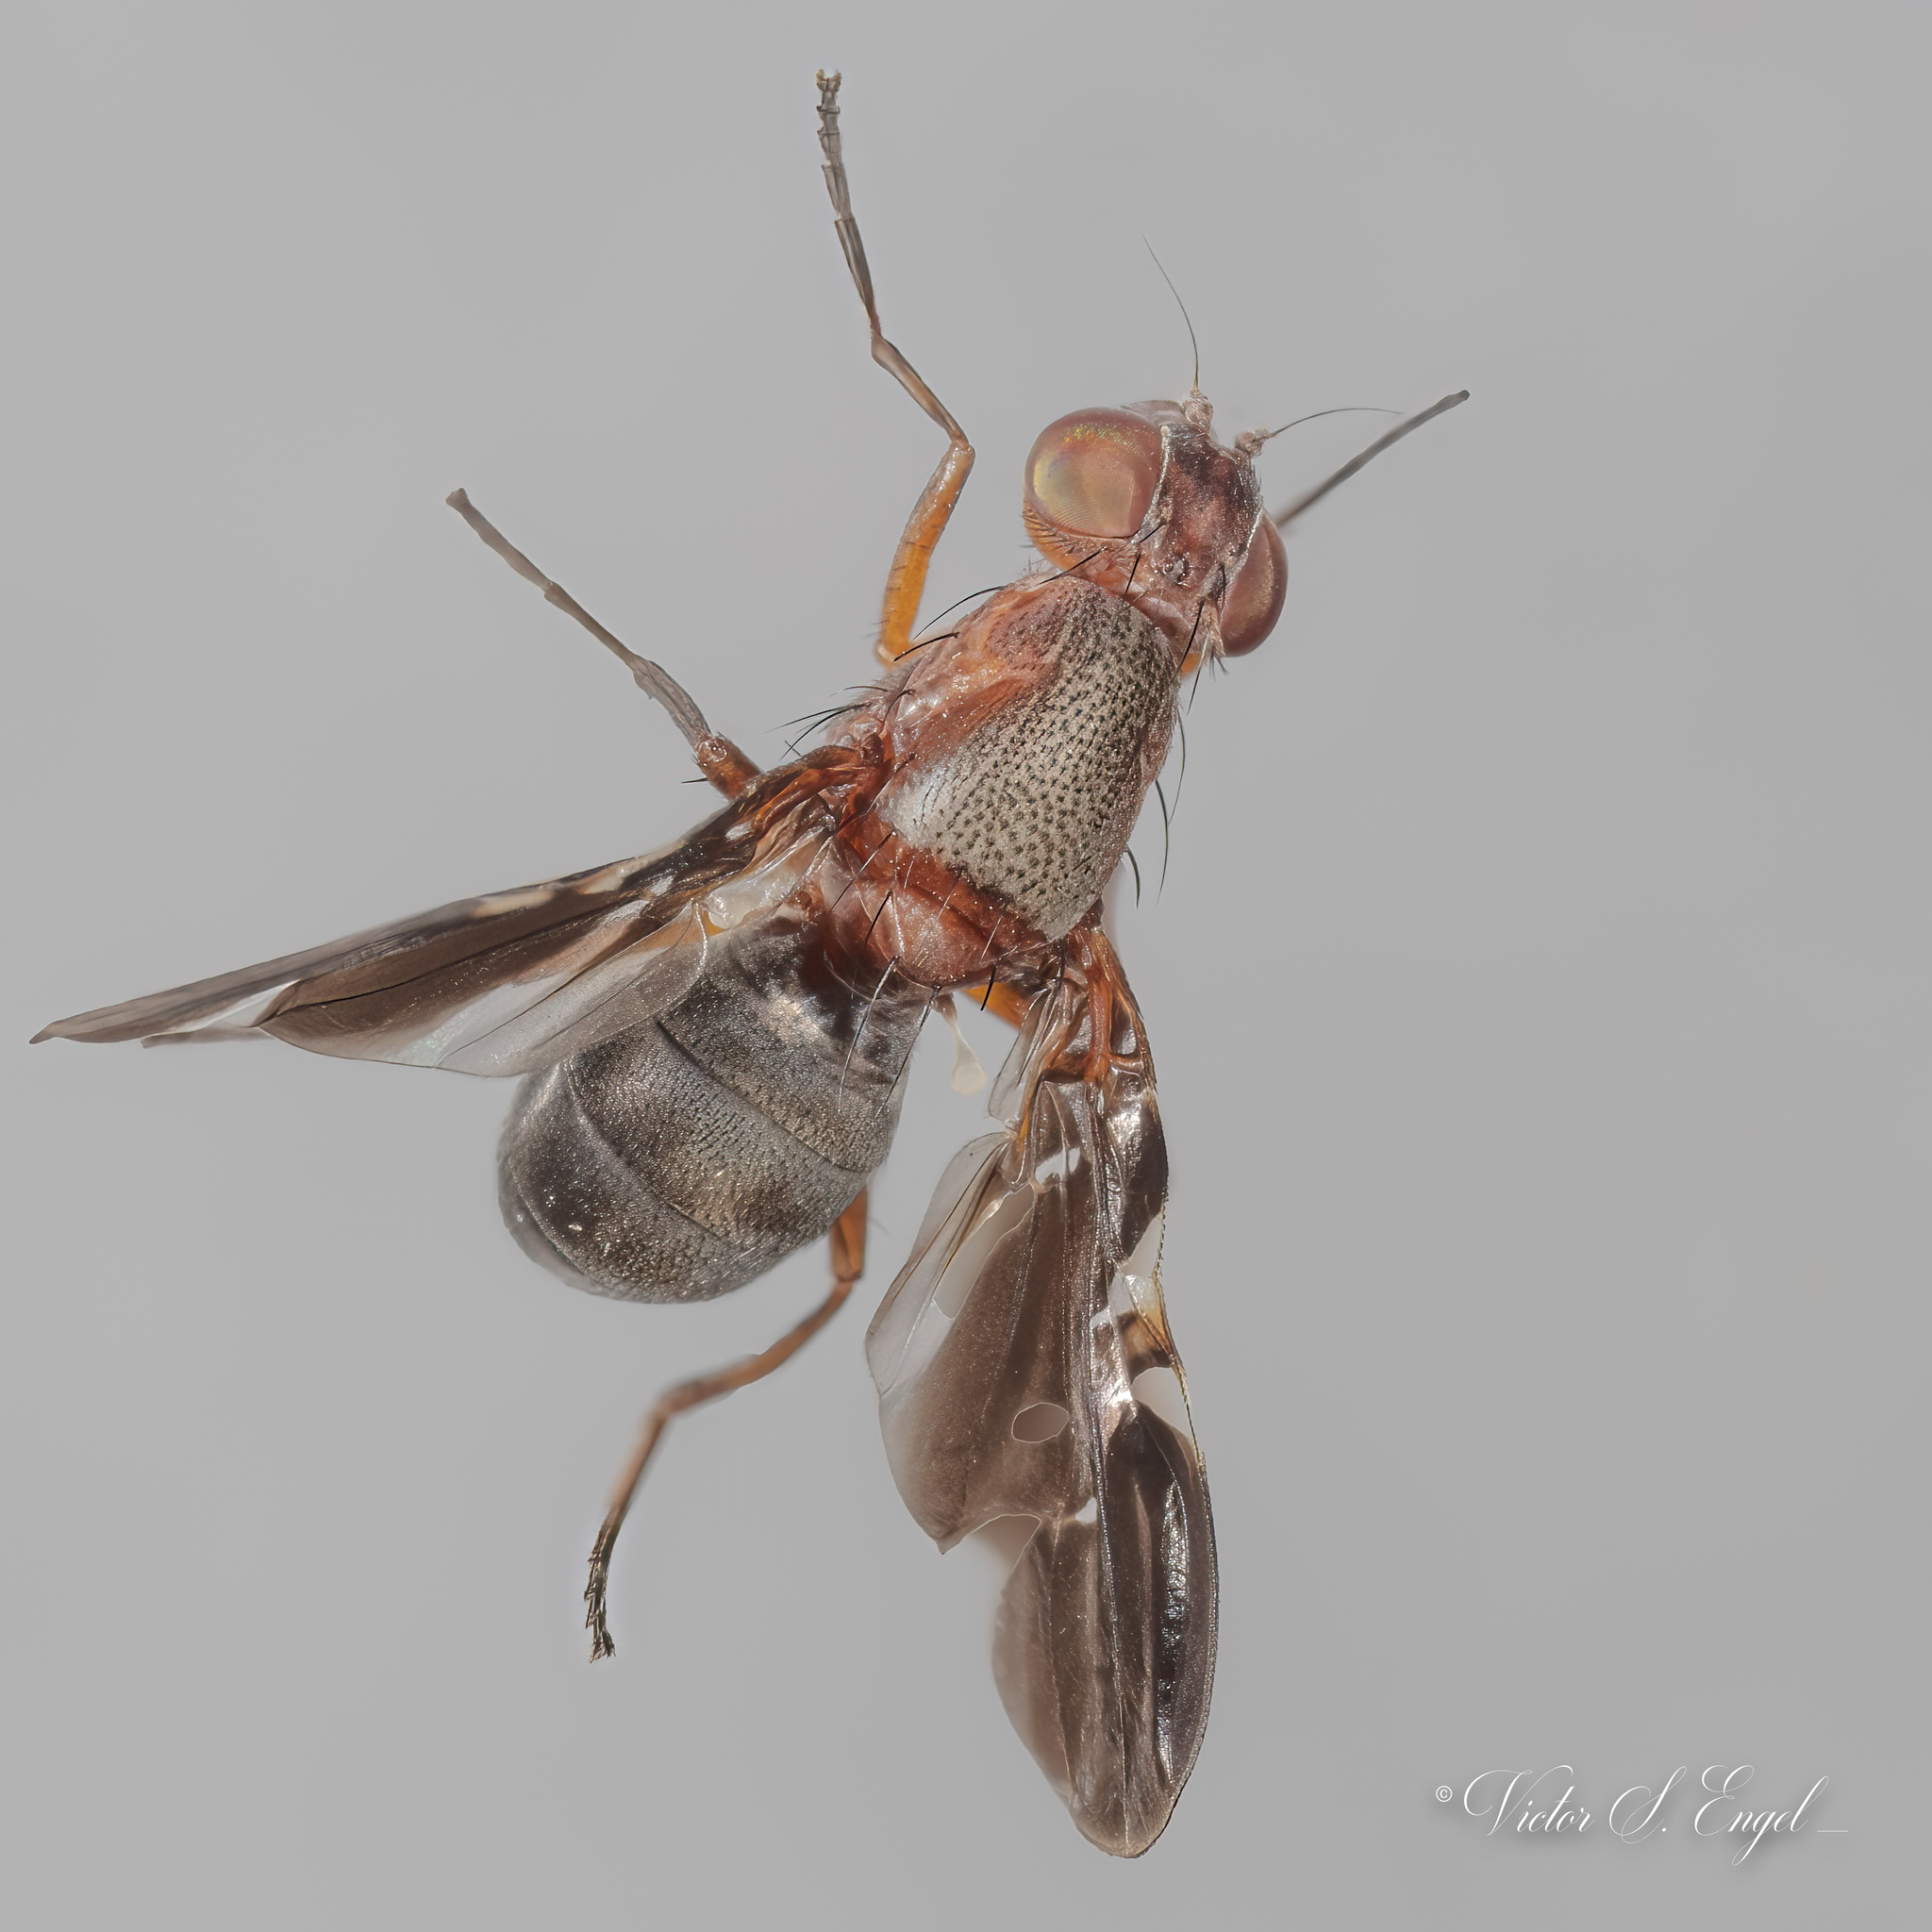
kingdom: Animalia
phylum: Arthropoda
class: Insecta
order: Diptera
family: Ulidiidae
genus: Delphinia
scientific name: Delphinia picta
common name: Common picture-winged fly
